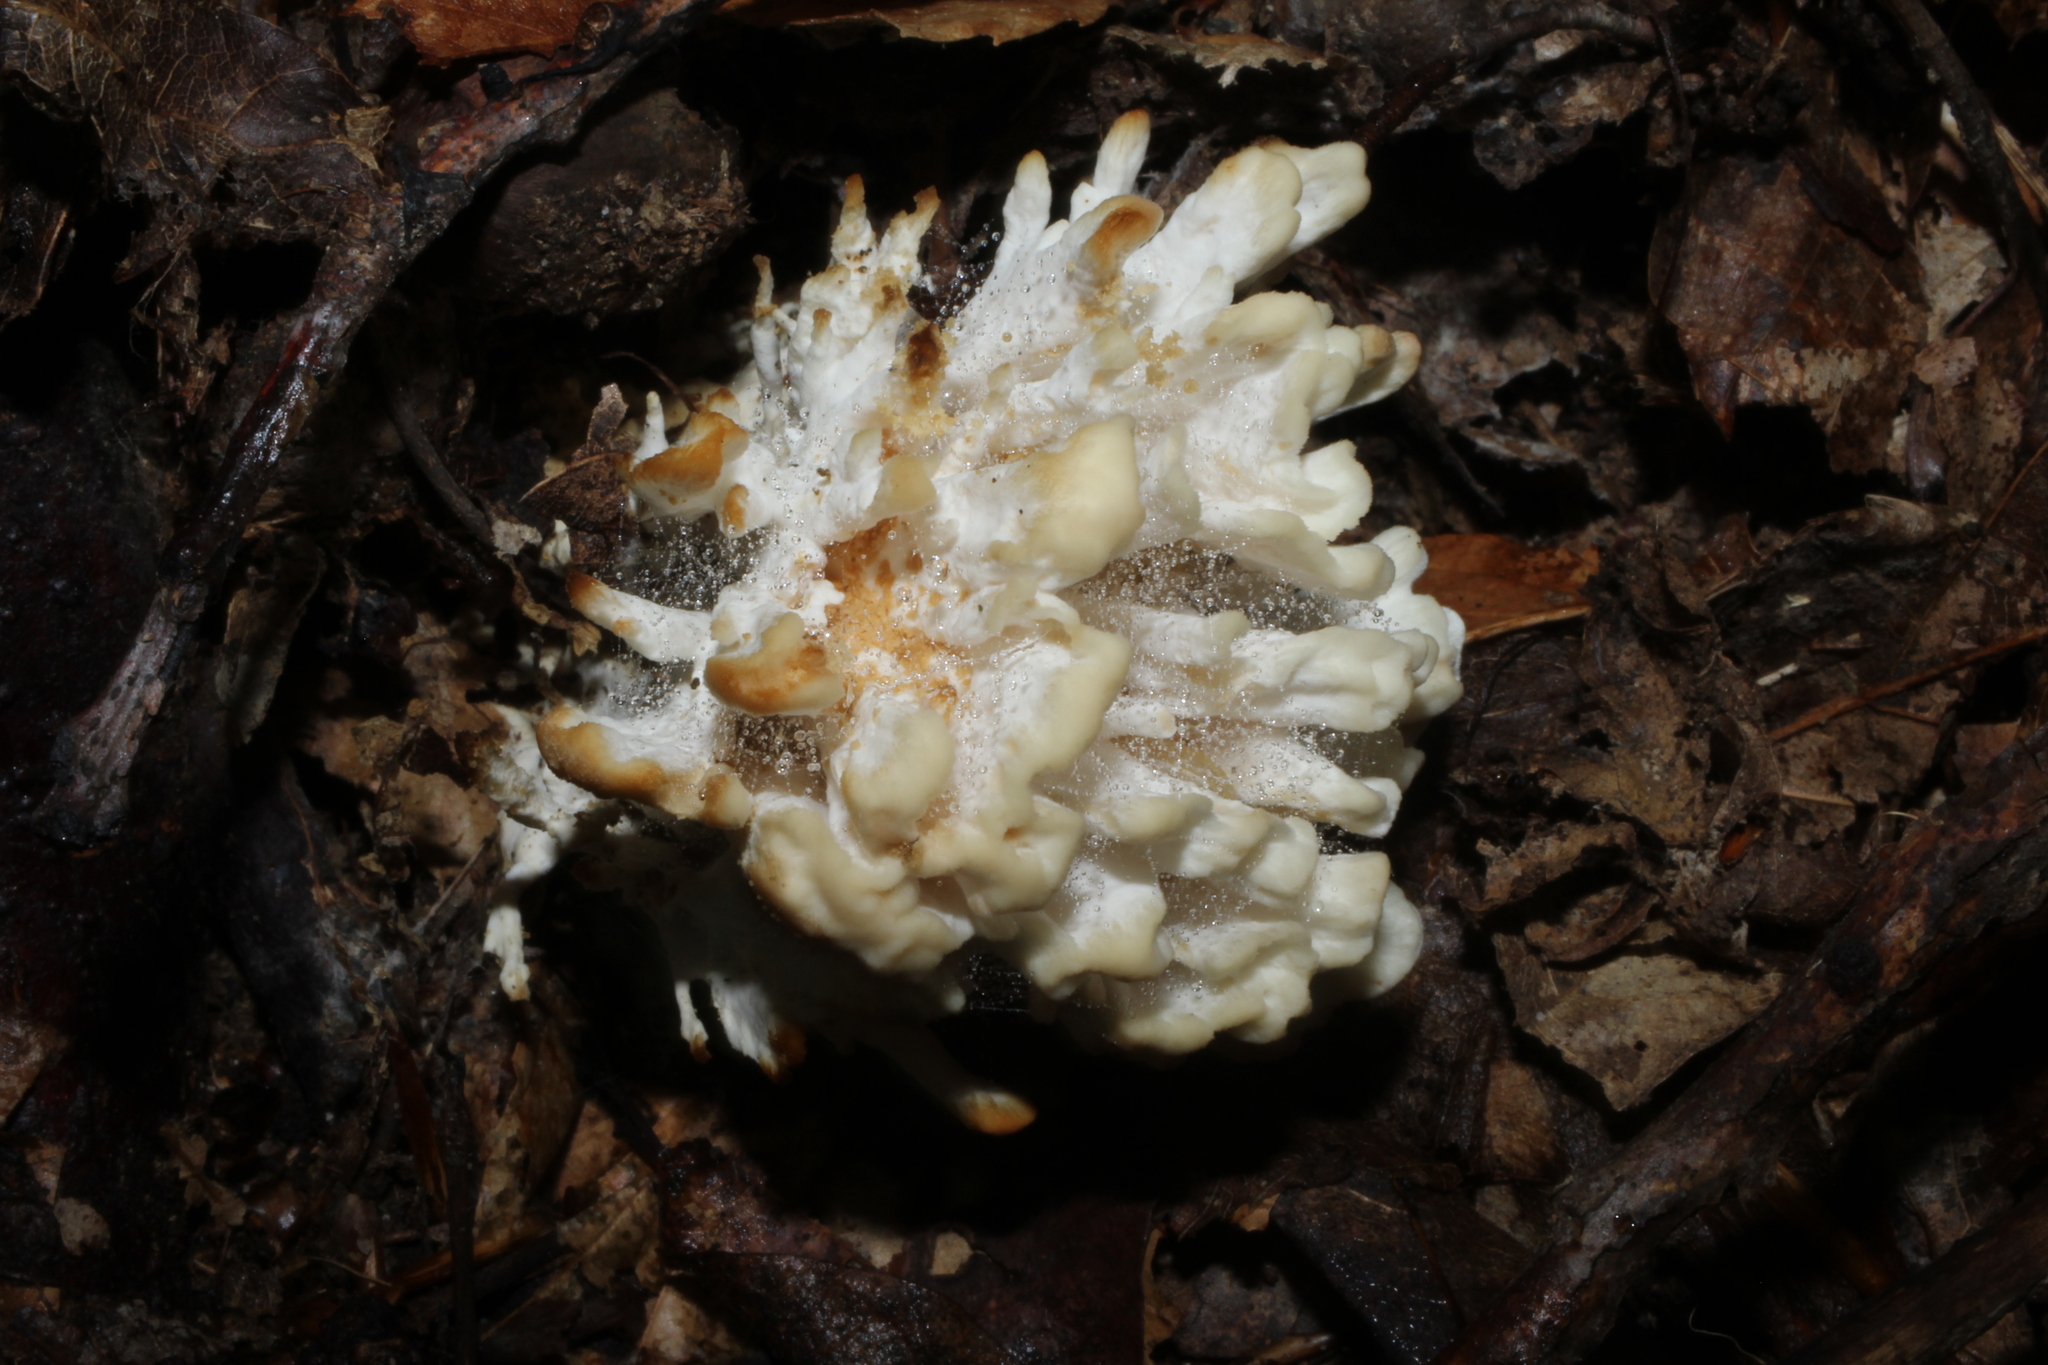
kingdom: Fungi
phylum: Basidiomycota
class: Agaricomycetes
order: Sebacinales
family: Sebacinaceae
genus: Sebacina
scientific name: Sebacina schweinitzii
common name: Jellied false coral fungus
